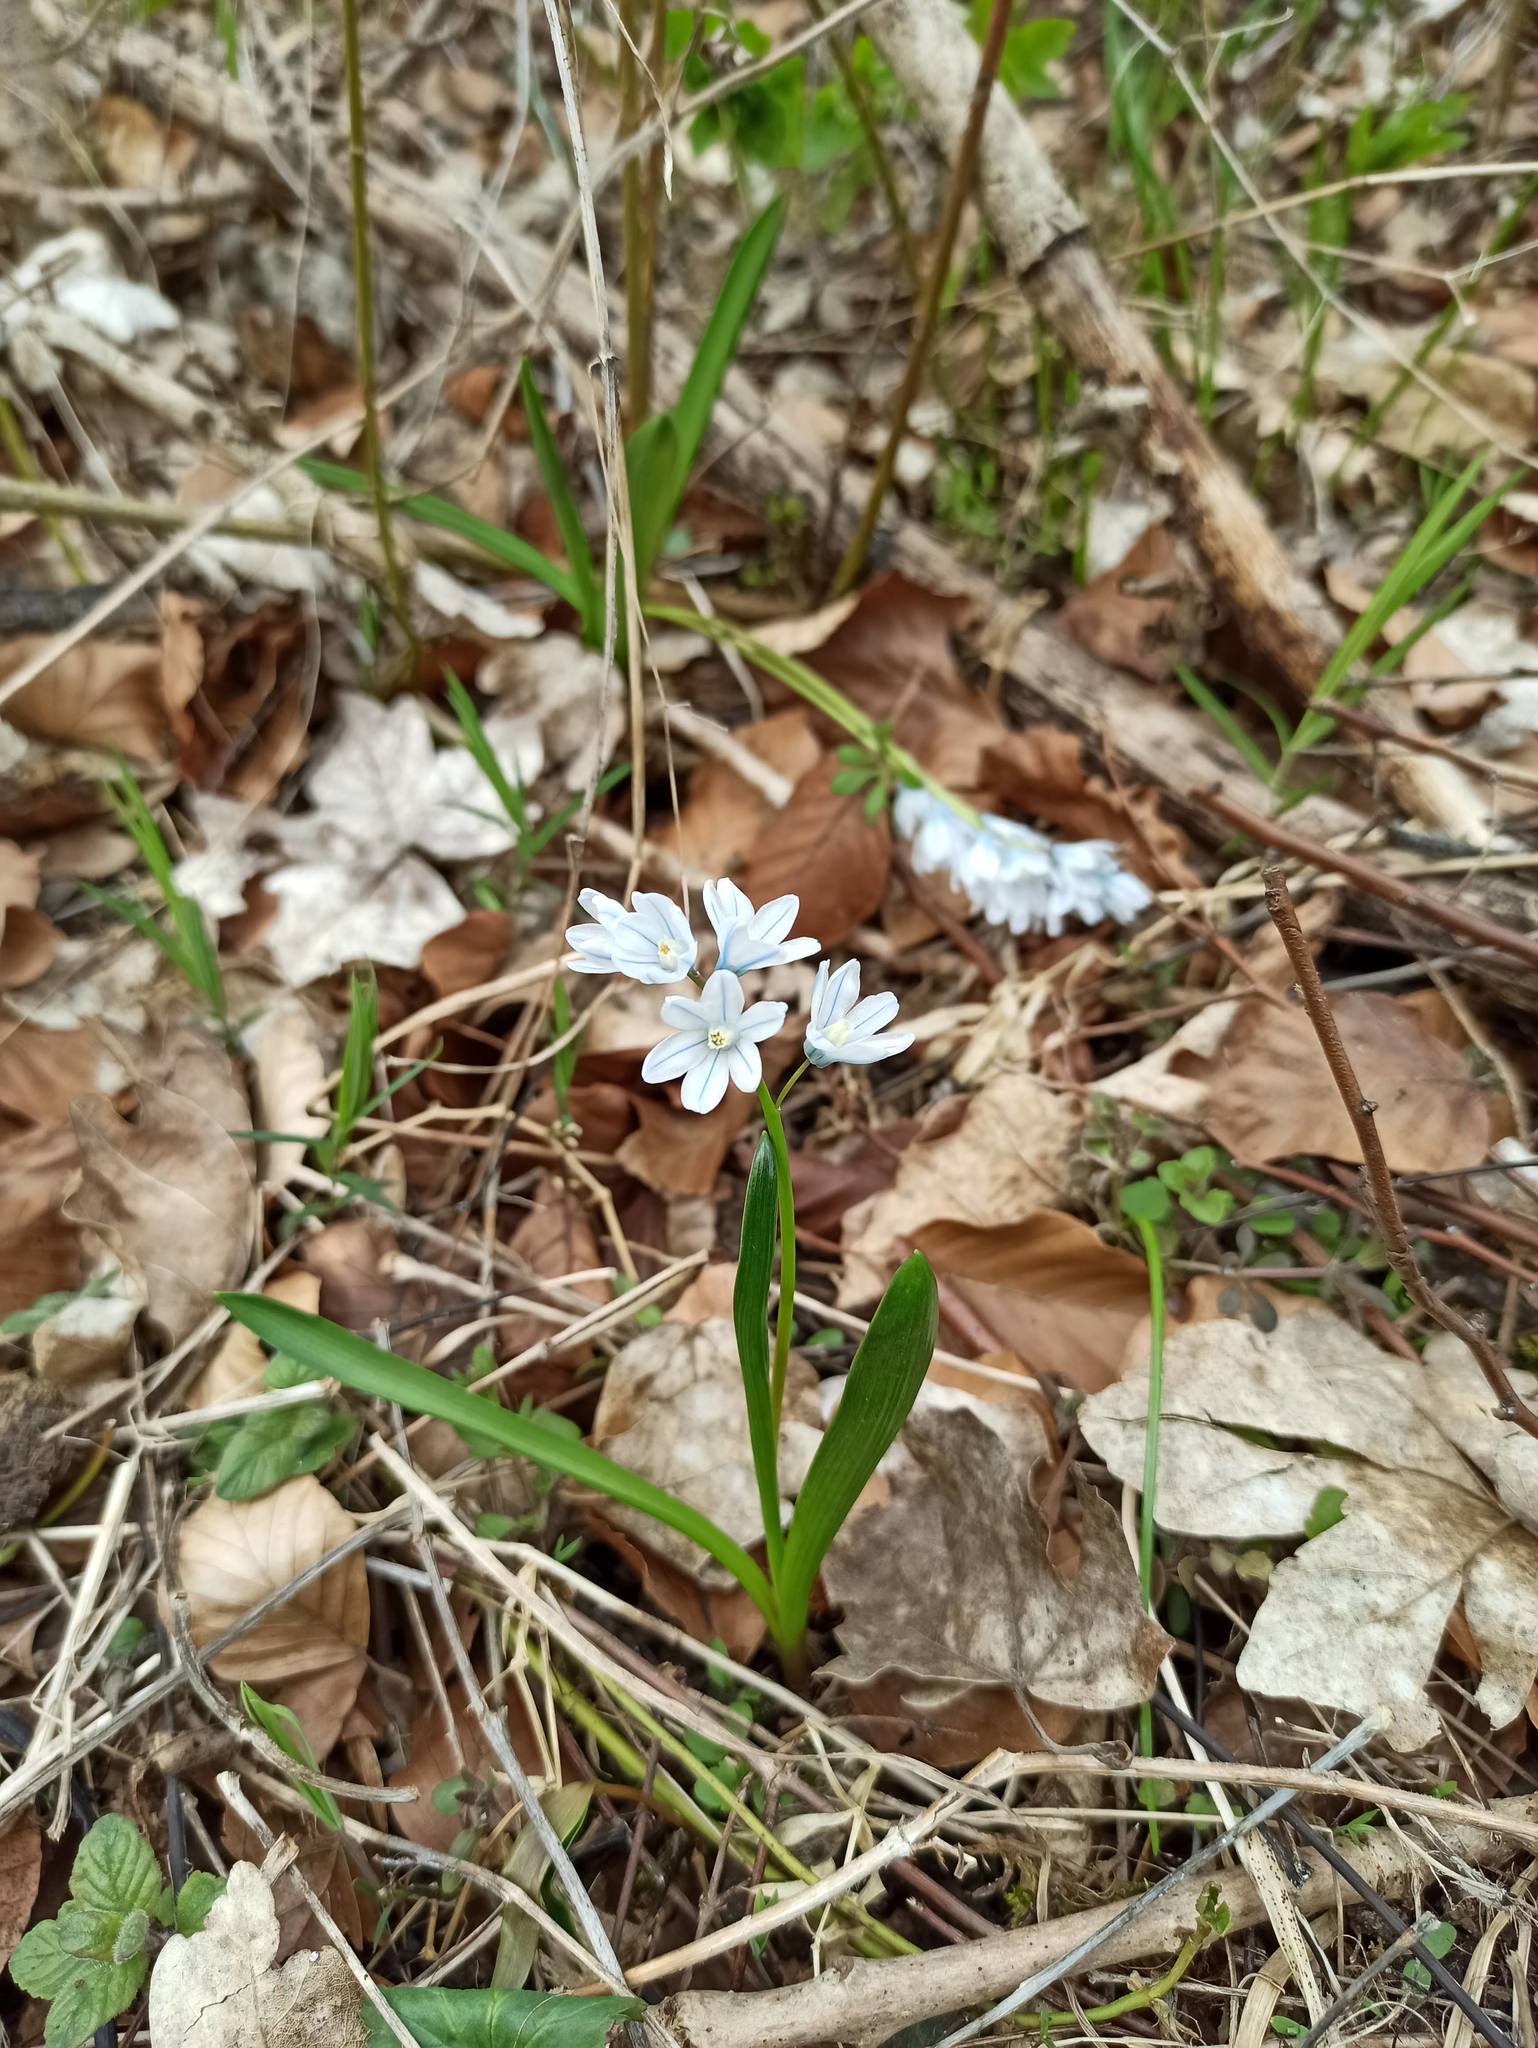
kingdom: Plantae
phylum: Tracheophyta
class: Liliopsida
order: Asparagales
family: Asparagaceae
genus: Puschkinia
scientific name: Puschkinia scilloides
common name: Striped squill
